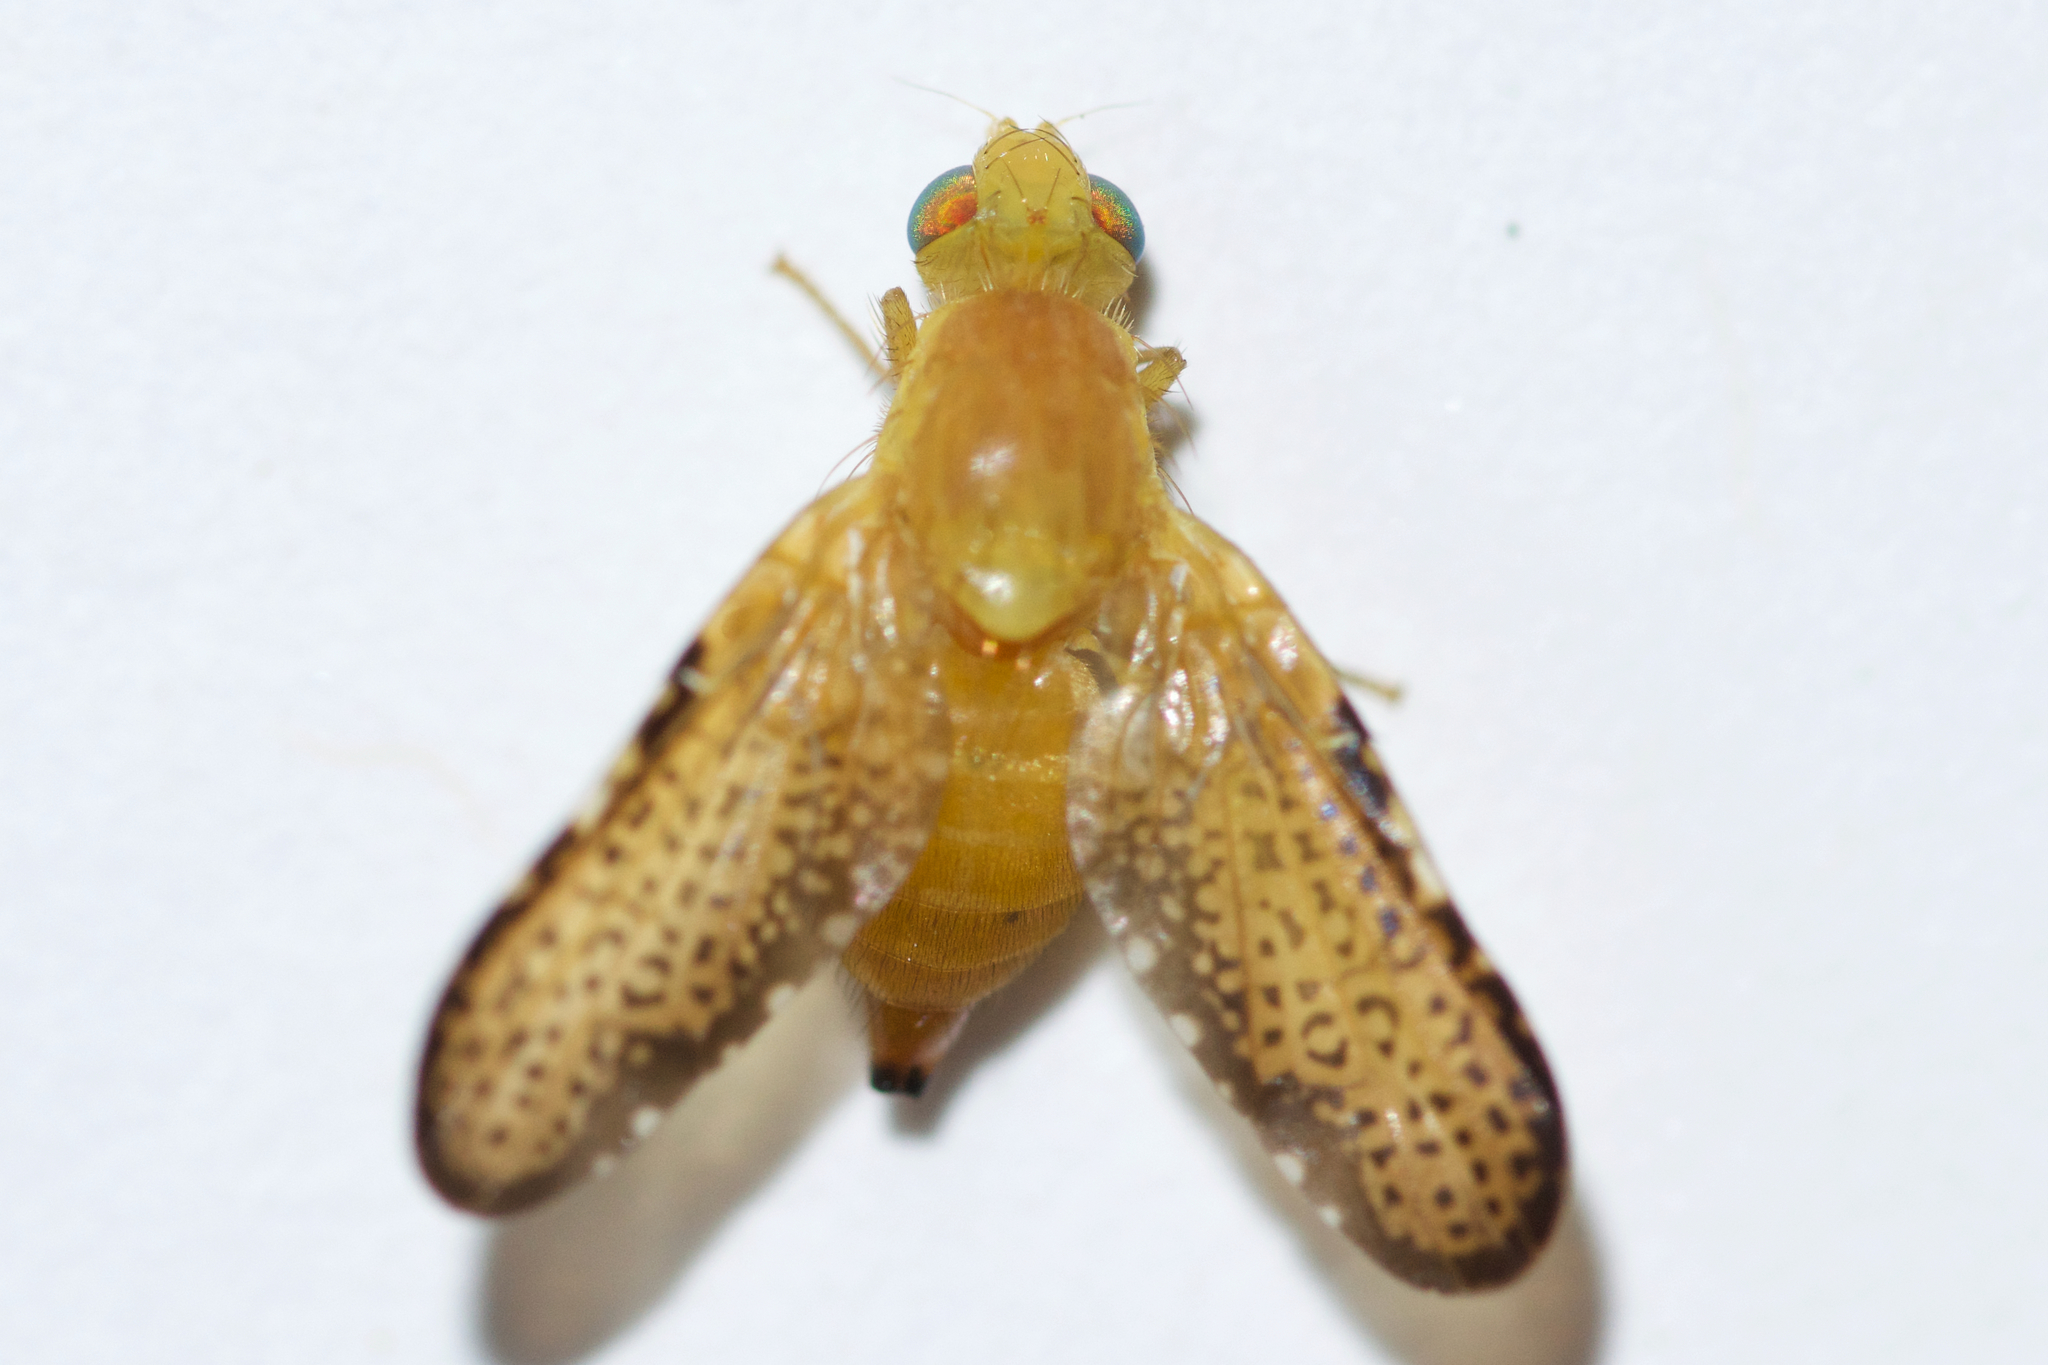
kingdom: Animalia
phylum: Arthropoda
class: Insecta
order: Diptera
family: Tephritidae
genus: Icterica
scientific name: Icterica seriata
